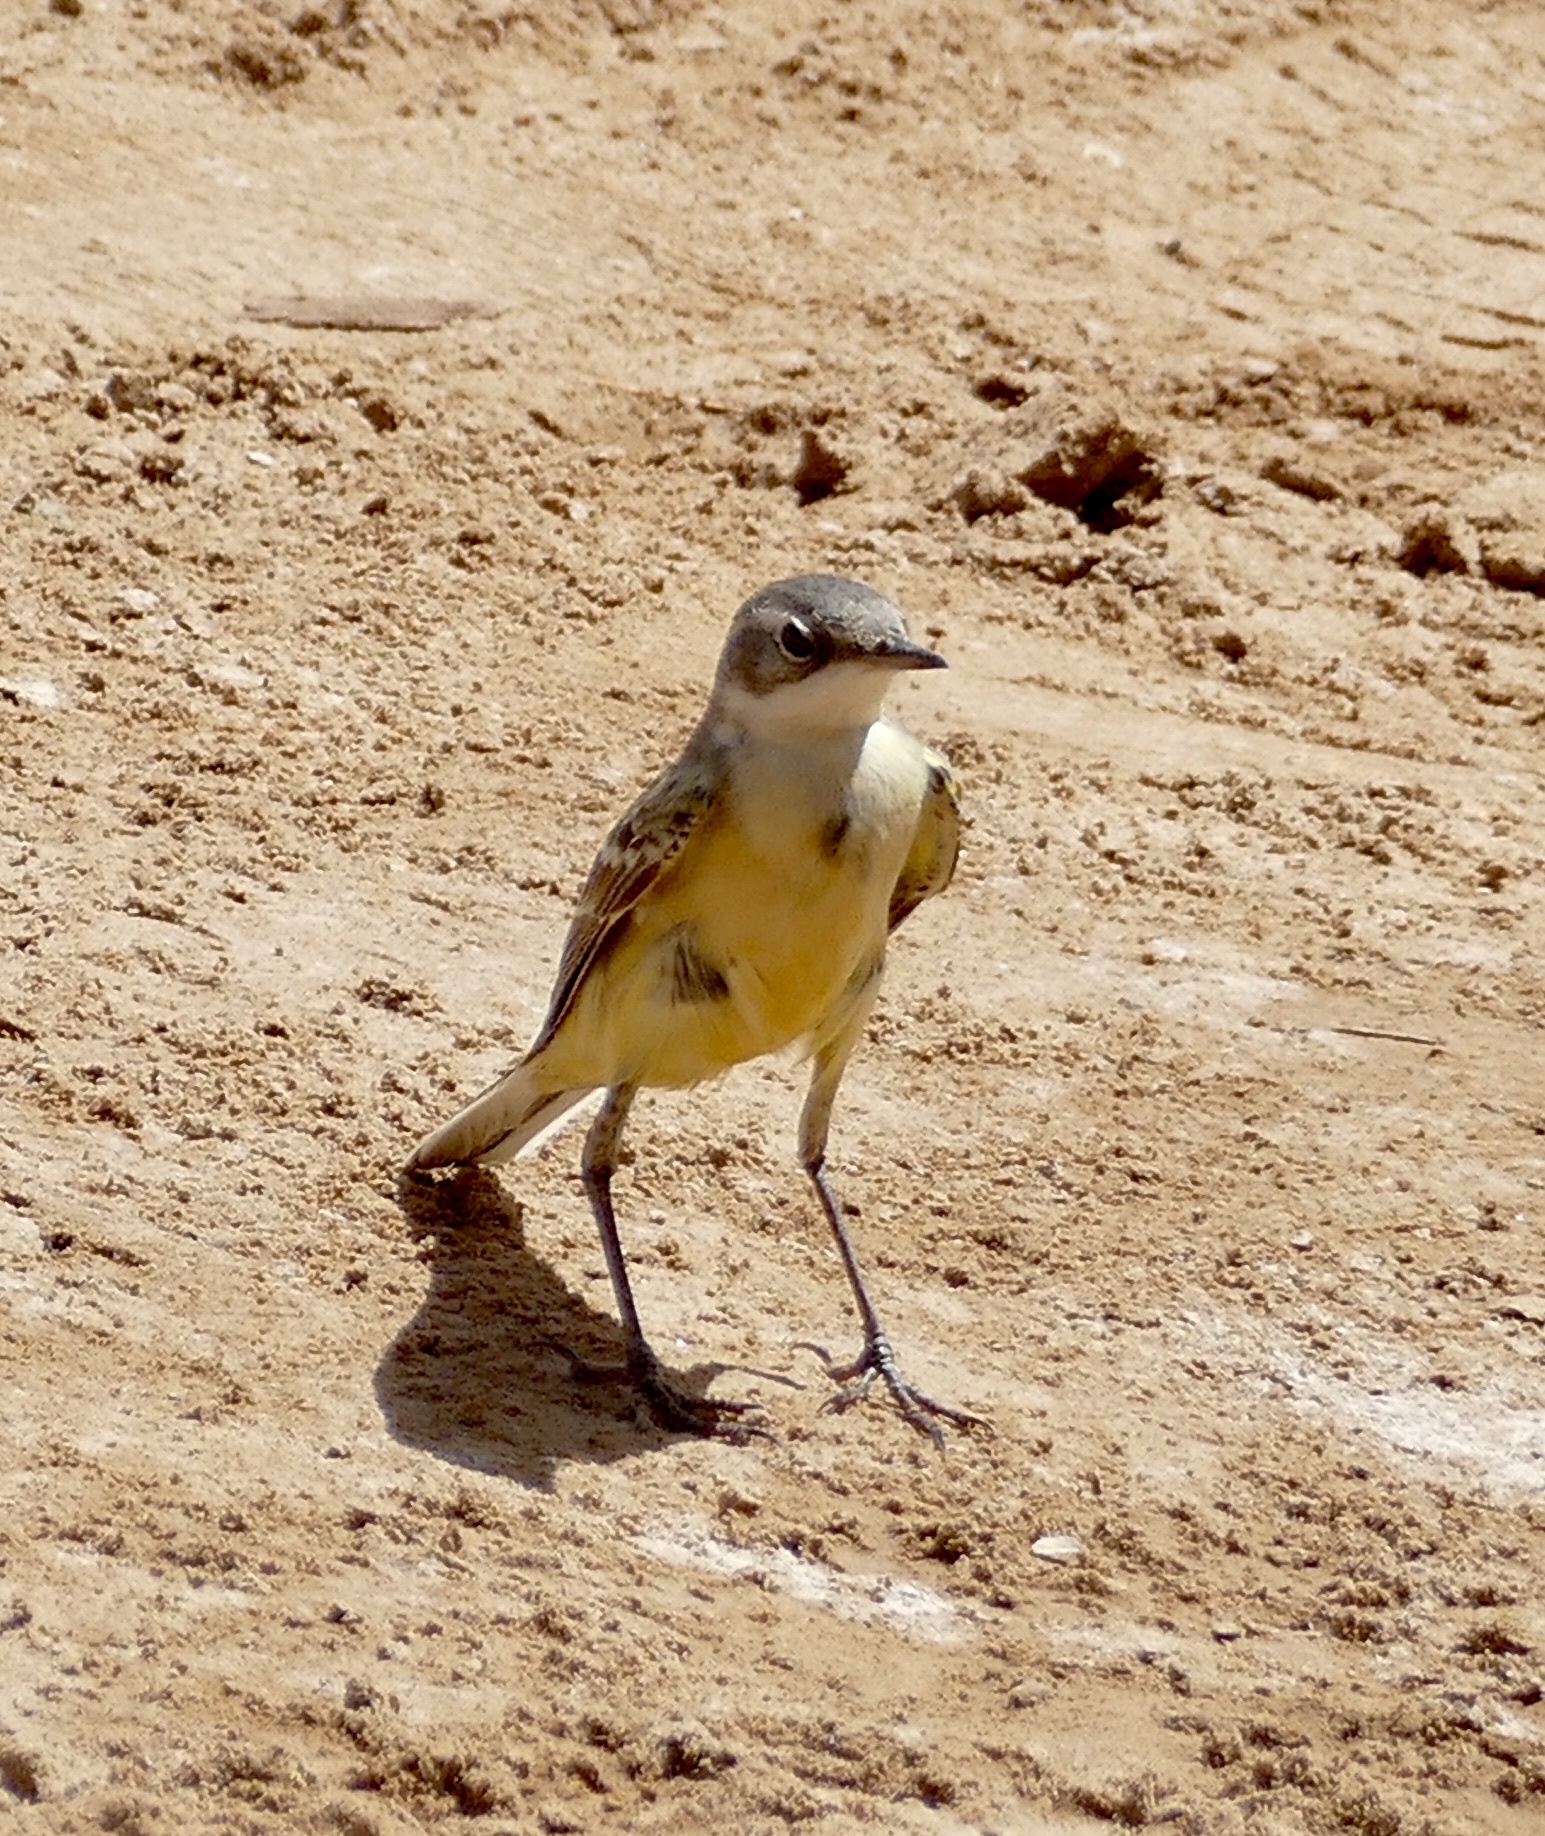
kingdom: Animalia
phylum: Chordata
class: Aves
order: Passeriformes
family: Motacillidae
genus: Motacilla
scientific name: Motacilla flava
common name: Western yellow wagtail
